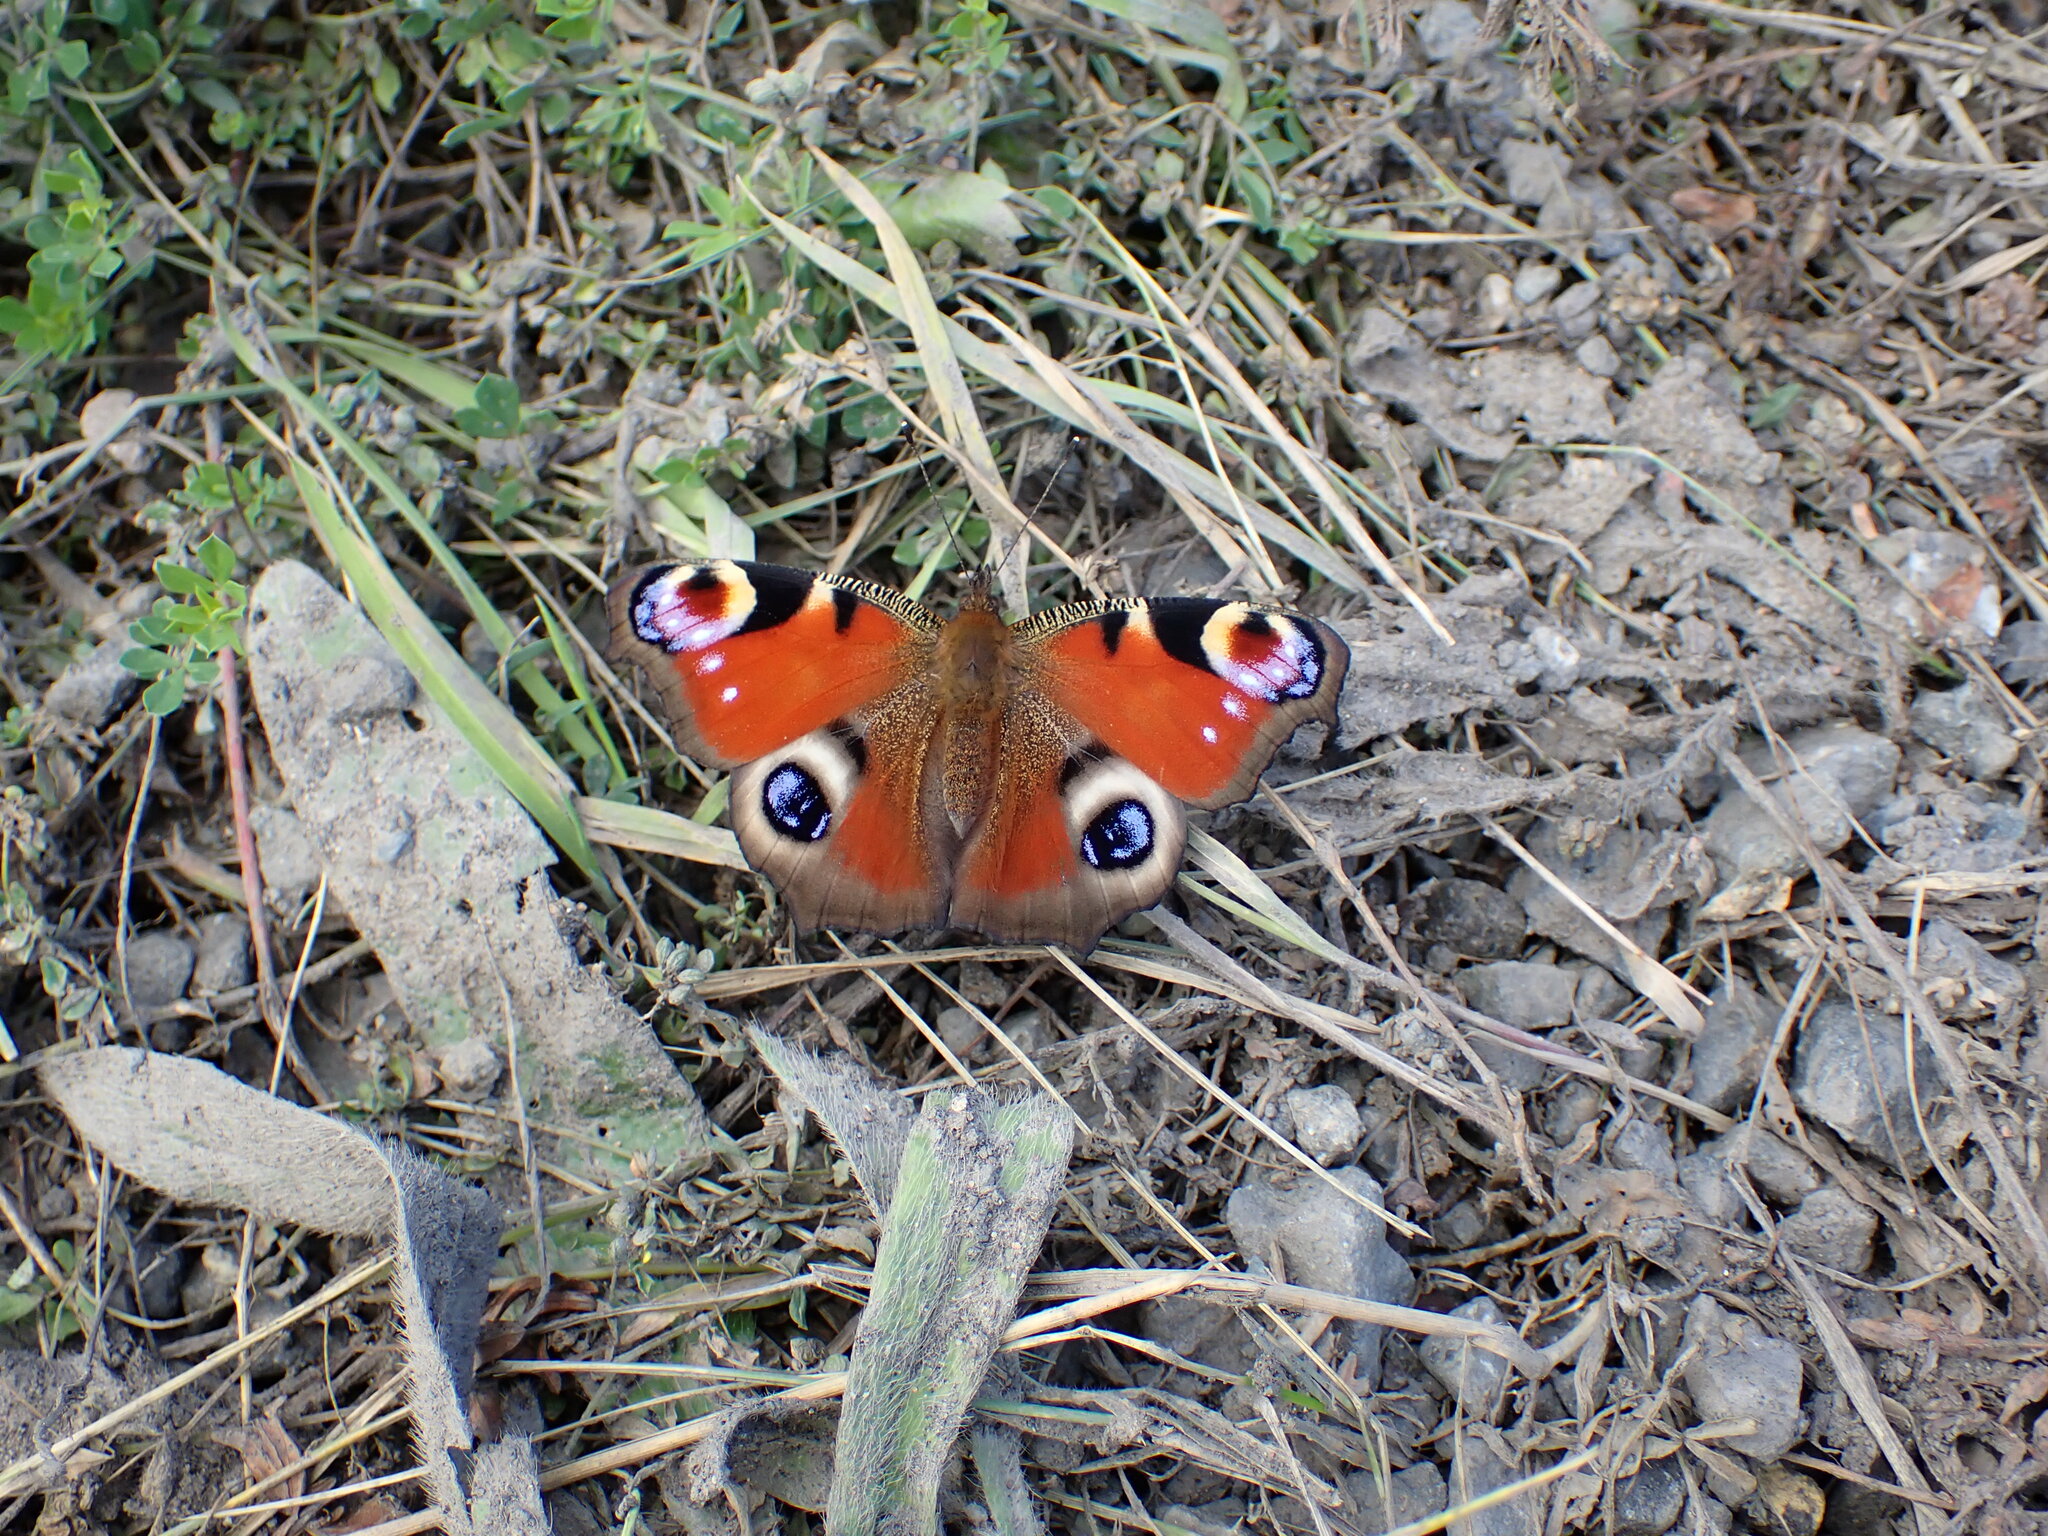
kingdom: Animalia
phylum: Arthropoda
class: Insecta
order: Lepidoptera
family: Nymphalidae
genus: Aglais
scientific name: Aglais io
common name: Peacock
